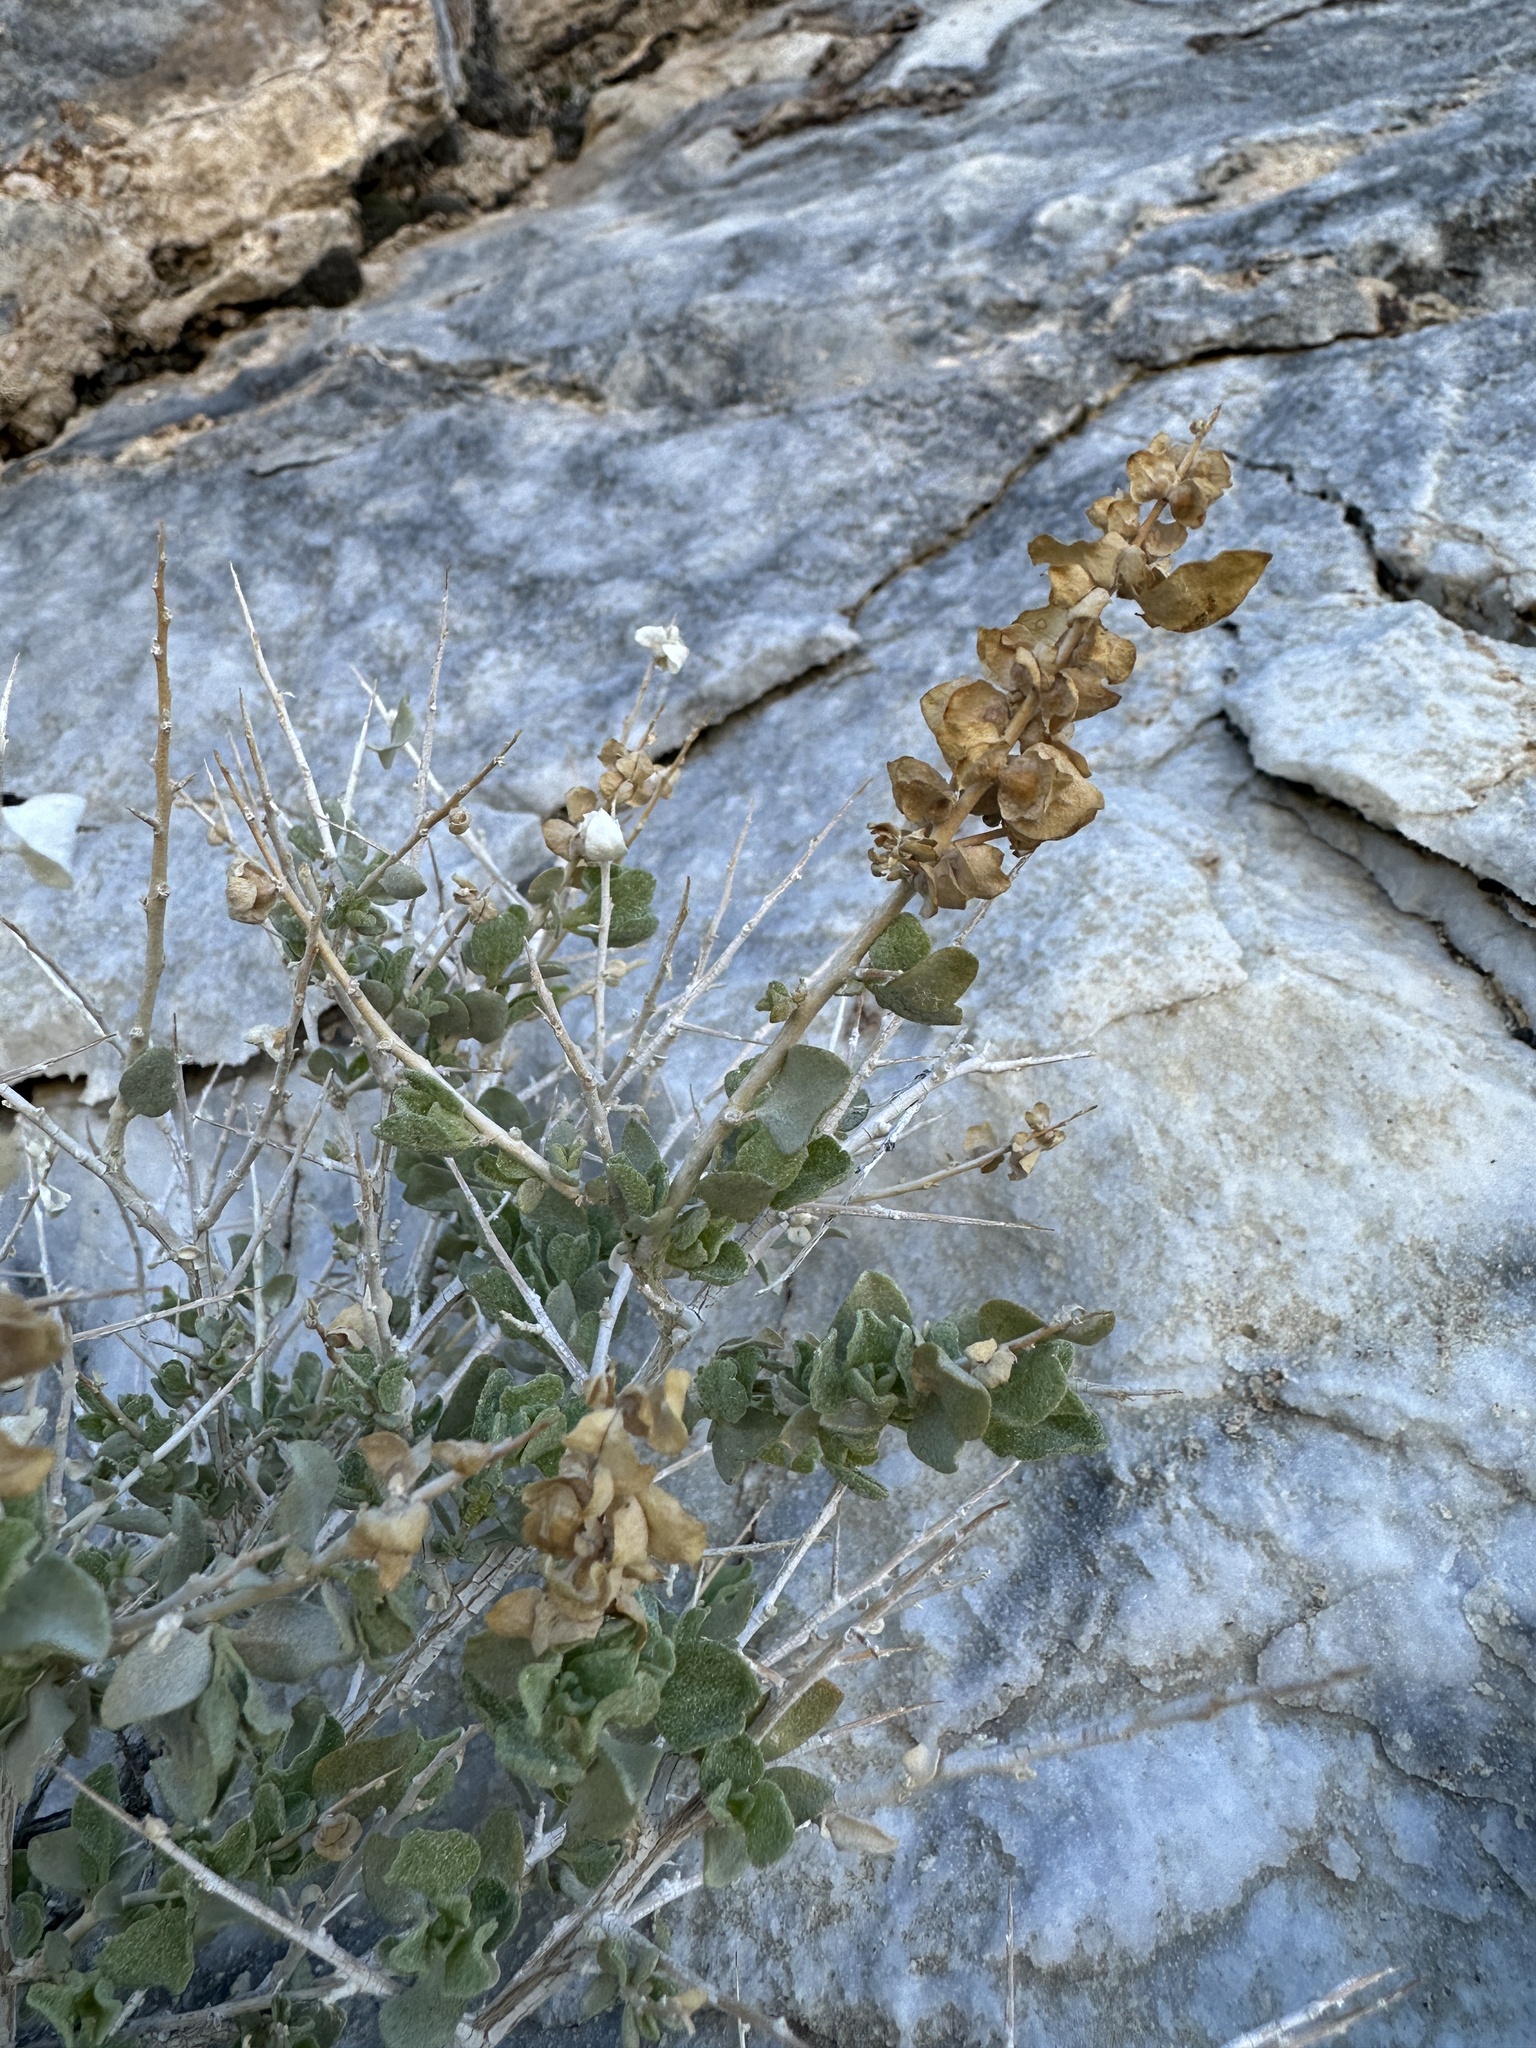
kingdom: Plantae
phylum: Tracheophyta
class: Magnoliopsida
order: Caryophyllales
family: Amaranthaceae
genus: Atriplex
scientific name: Atriplex confertifolia
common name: Shadscale
